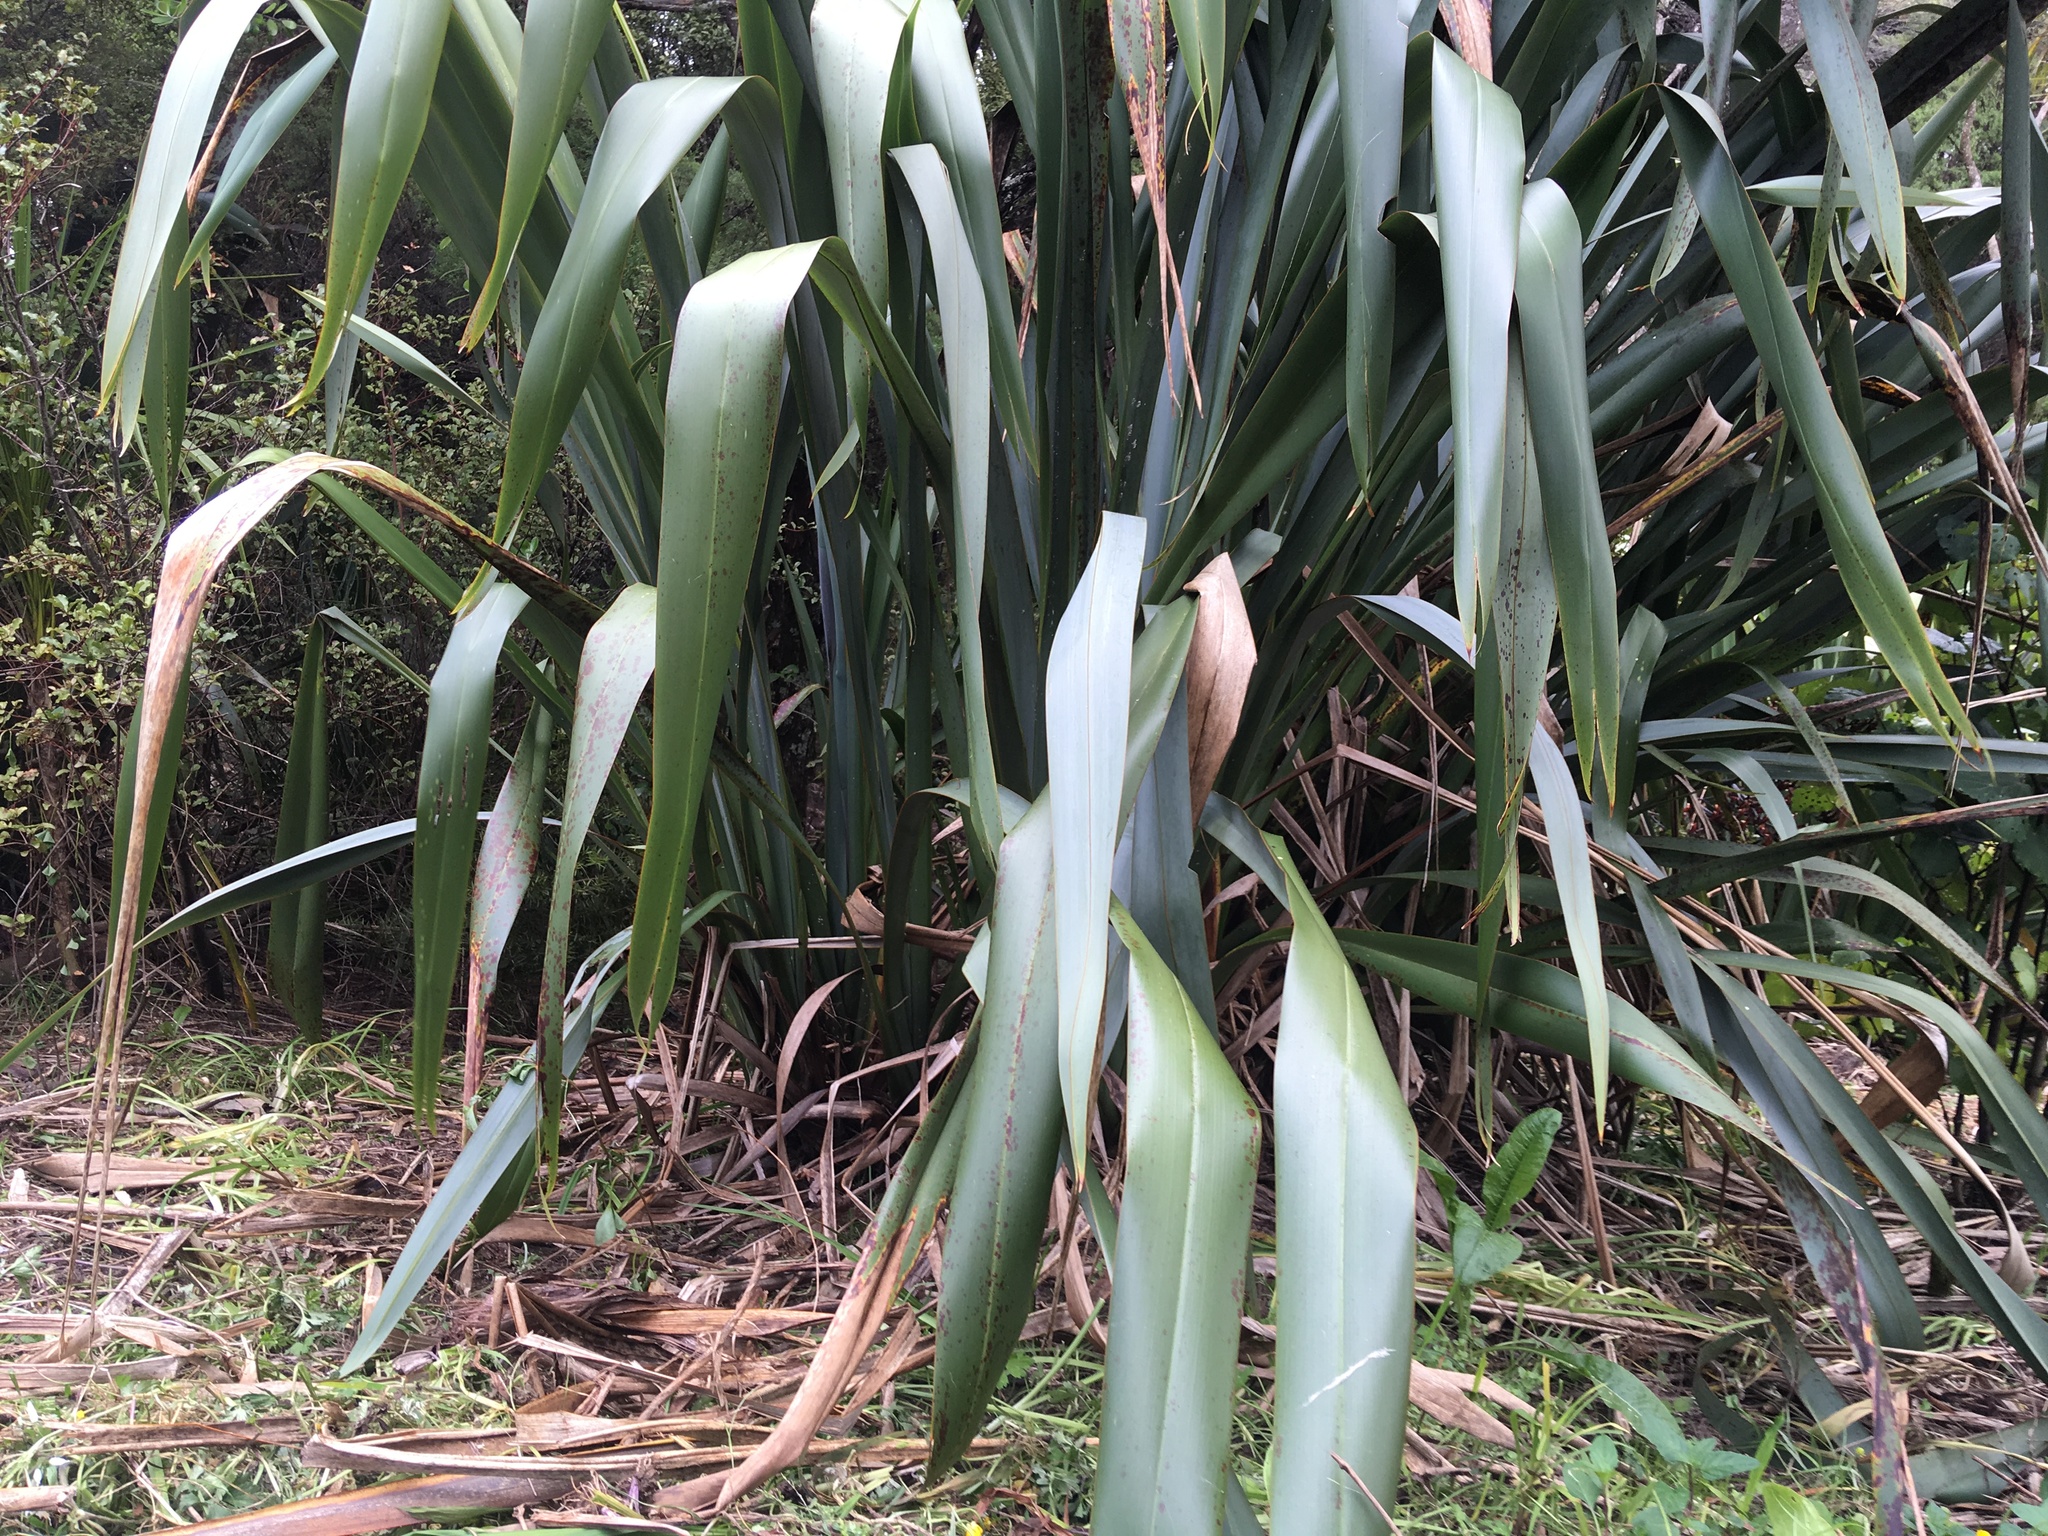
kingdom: Plantae
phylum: Tracheophyta
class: Liliopsida
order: Asparagales
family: Asphodelaceae
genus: Phormium
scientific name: Phormium tenax
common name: New zealand flax
